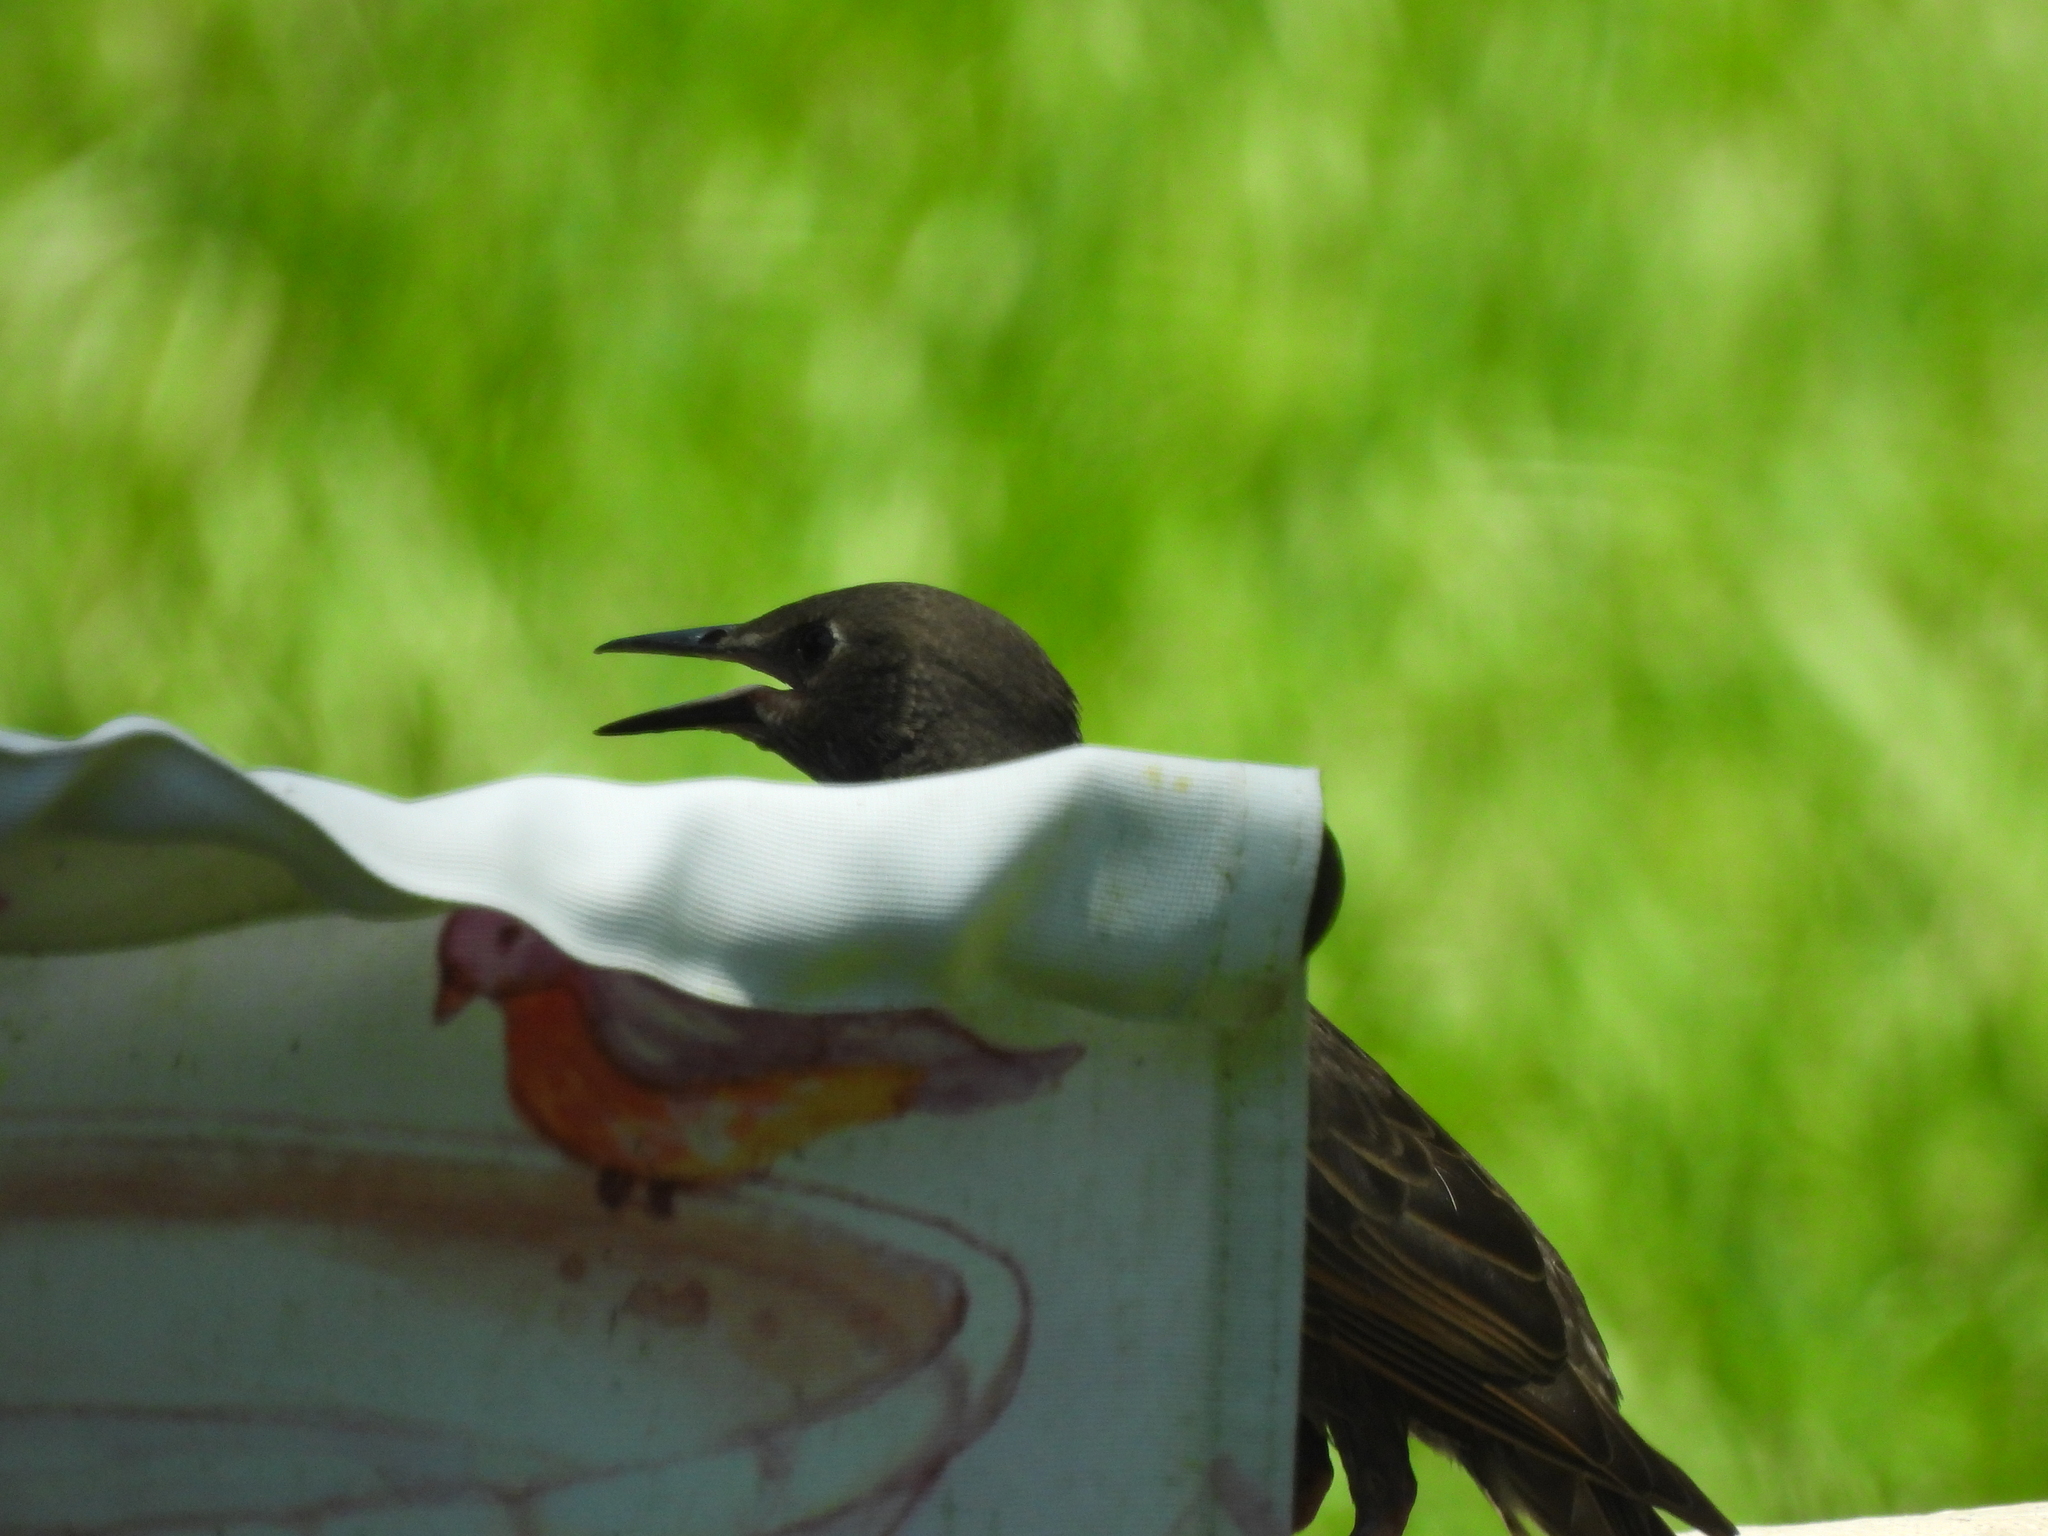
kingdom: Animalia
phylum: Chordata
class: Aves
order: Passeriformes
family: Sturnidae
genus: Sturnus
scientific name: Sturnus vulgaris
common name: Common starling
